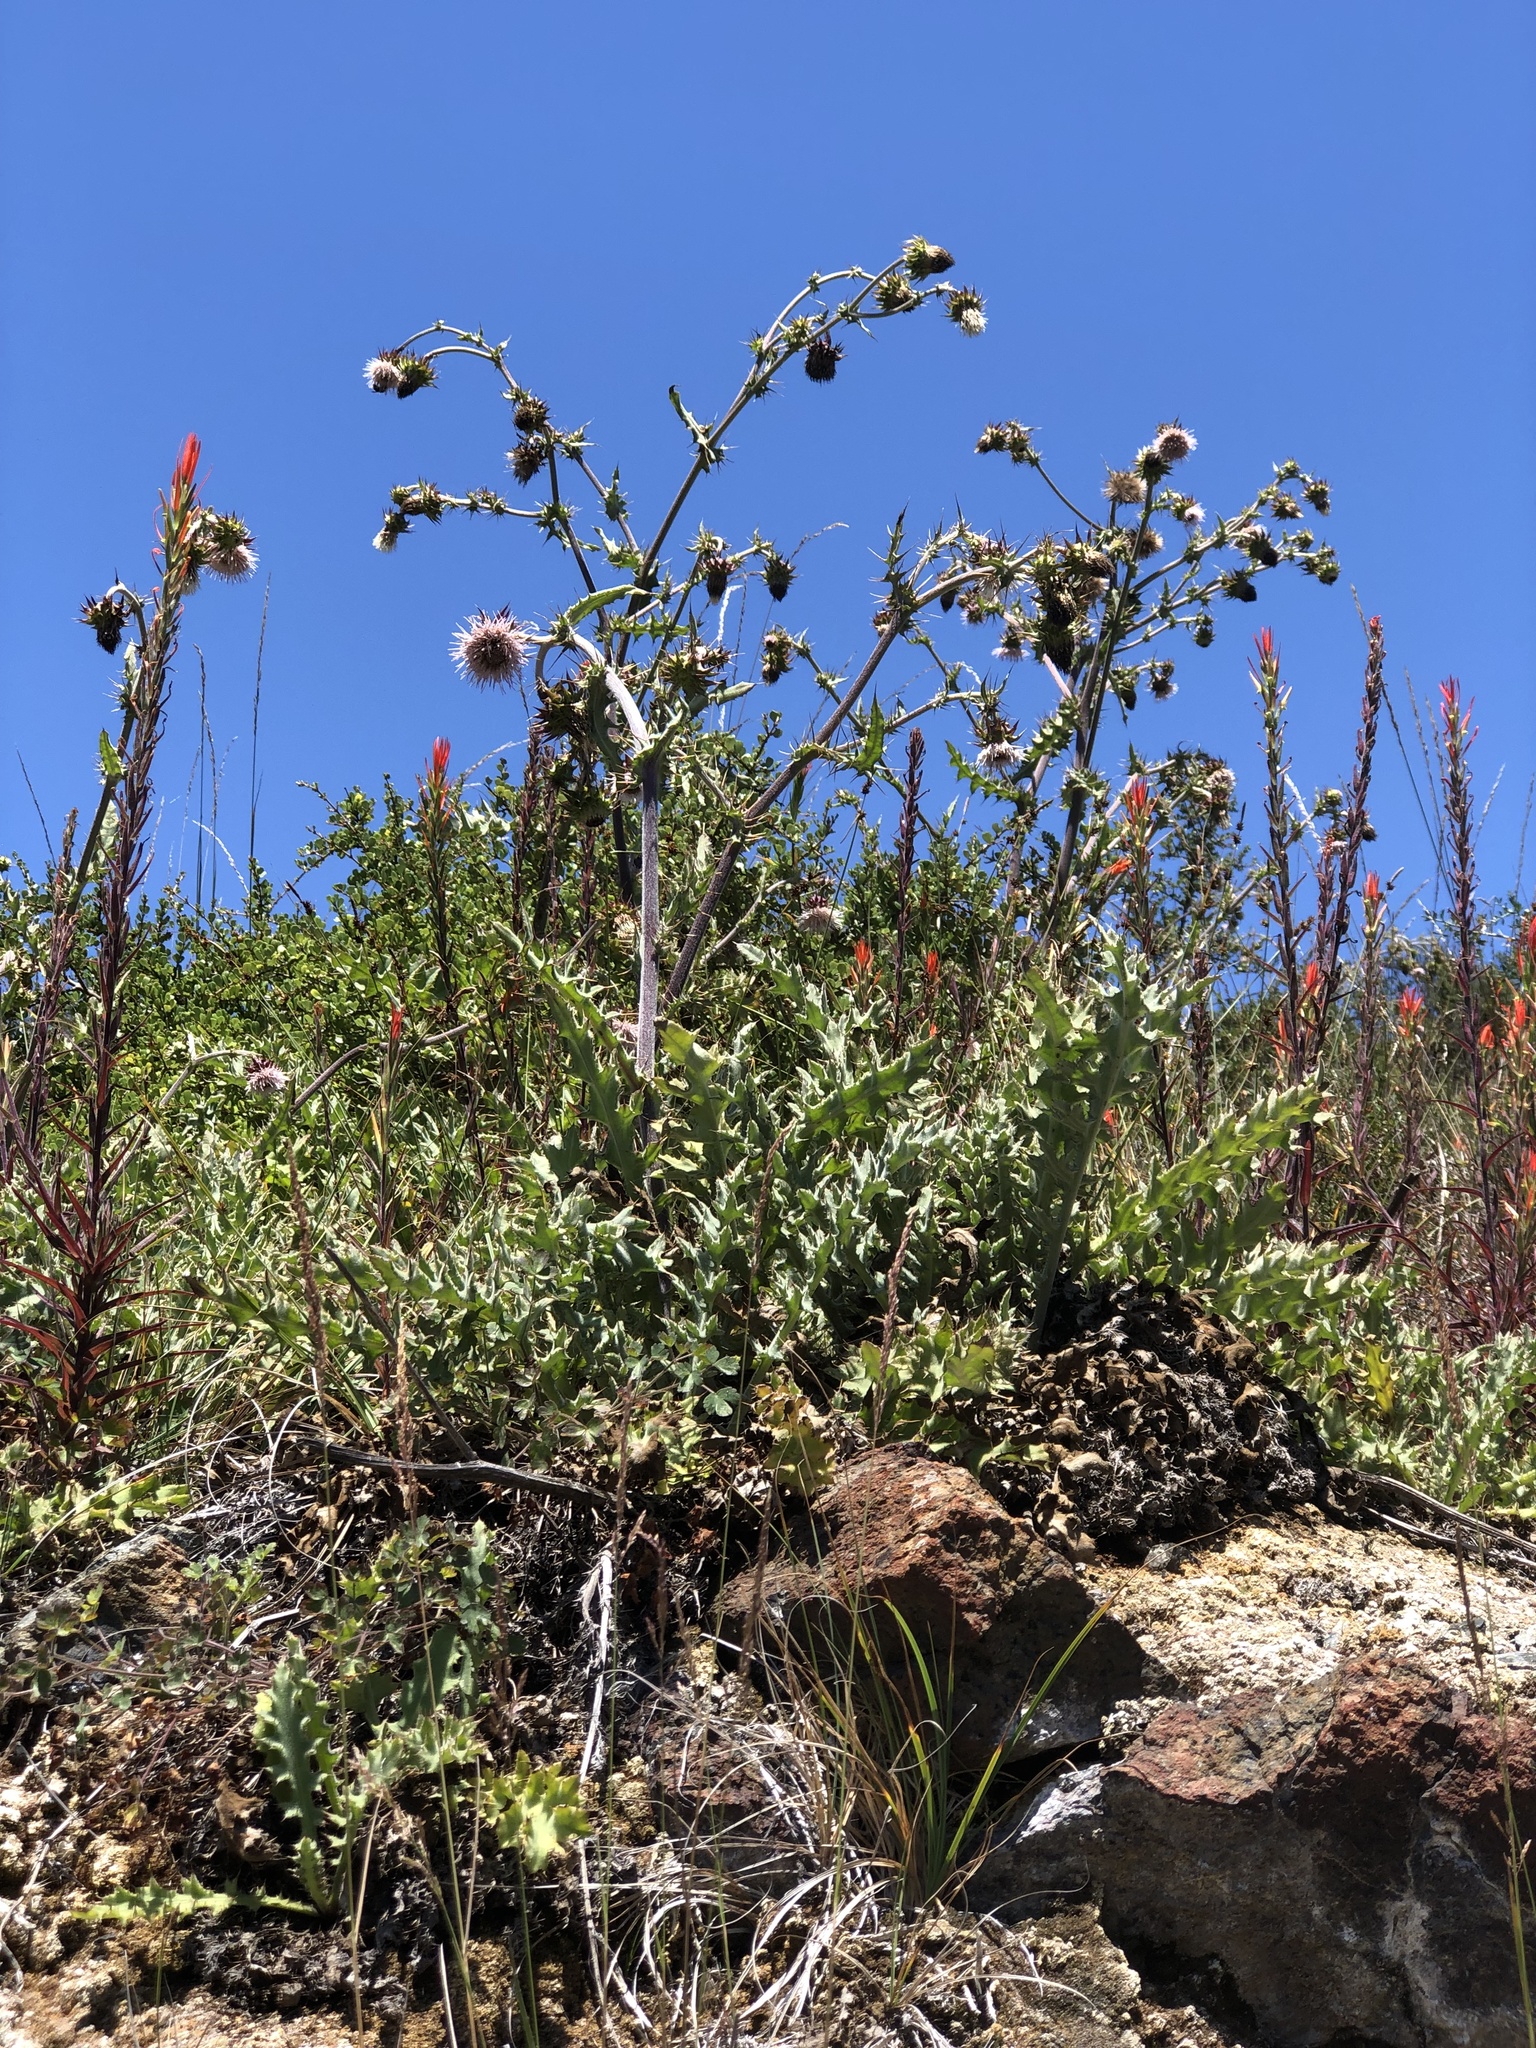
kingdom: Plantae
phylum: Tracheophyta
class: Magnoliopsida
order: Asterales
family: Asteraceae
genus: Cirsium
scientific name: Cirsium fontinale
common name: Fountain thistle
